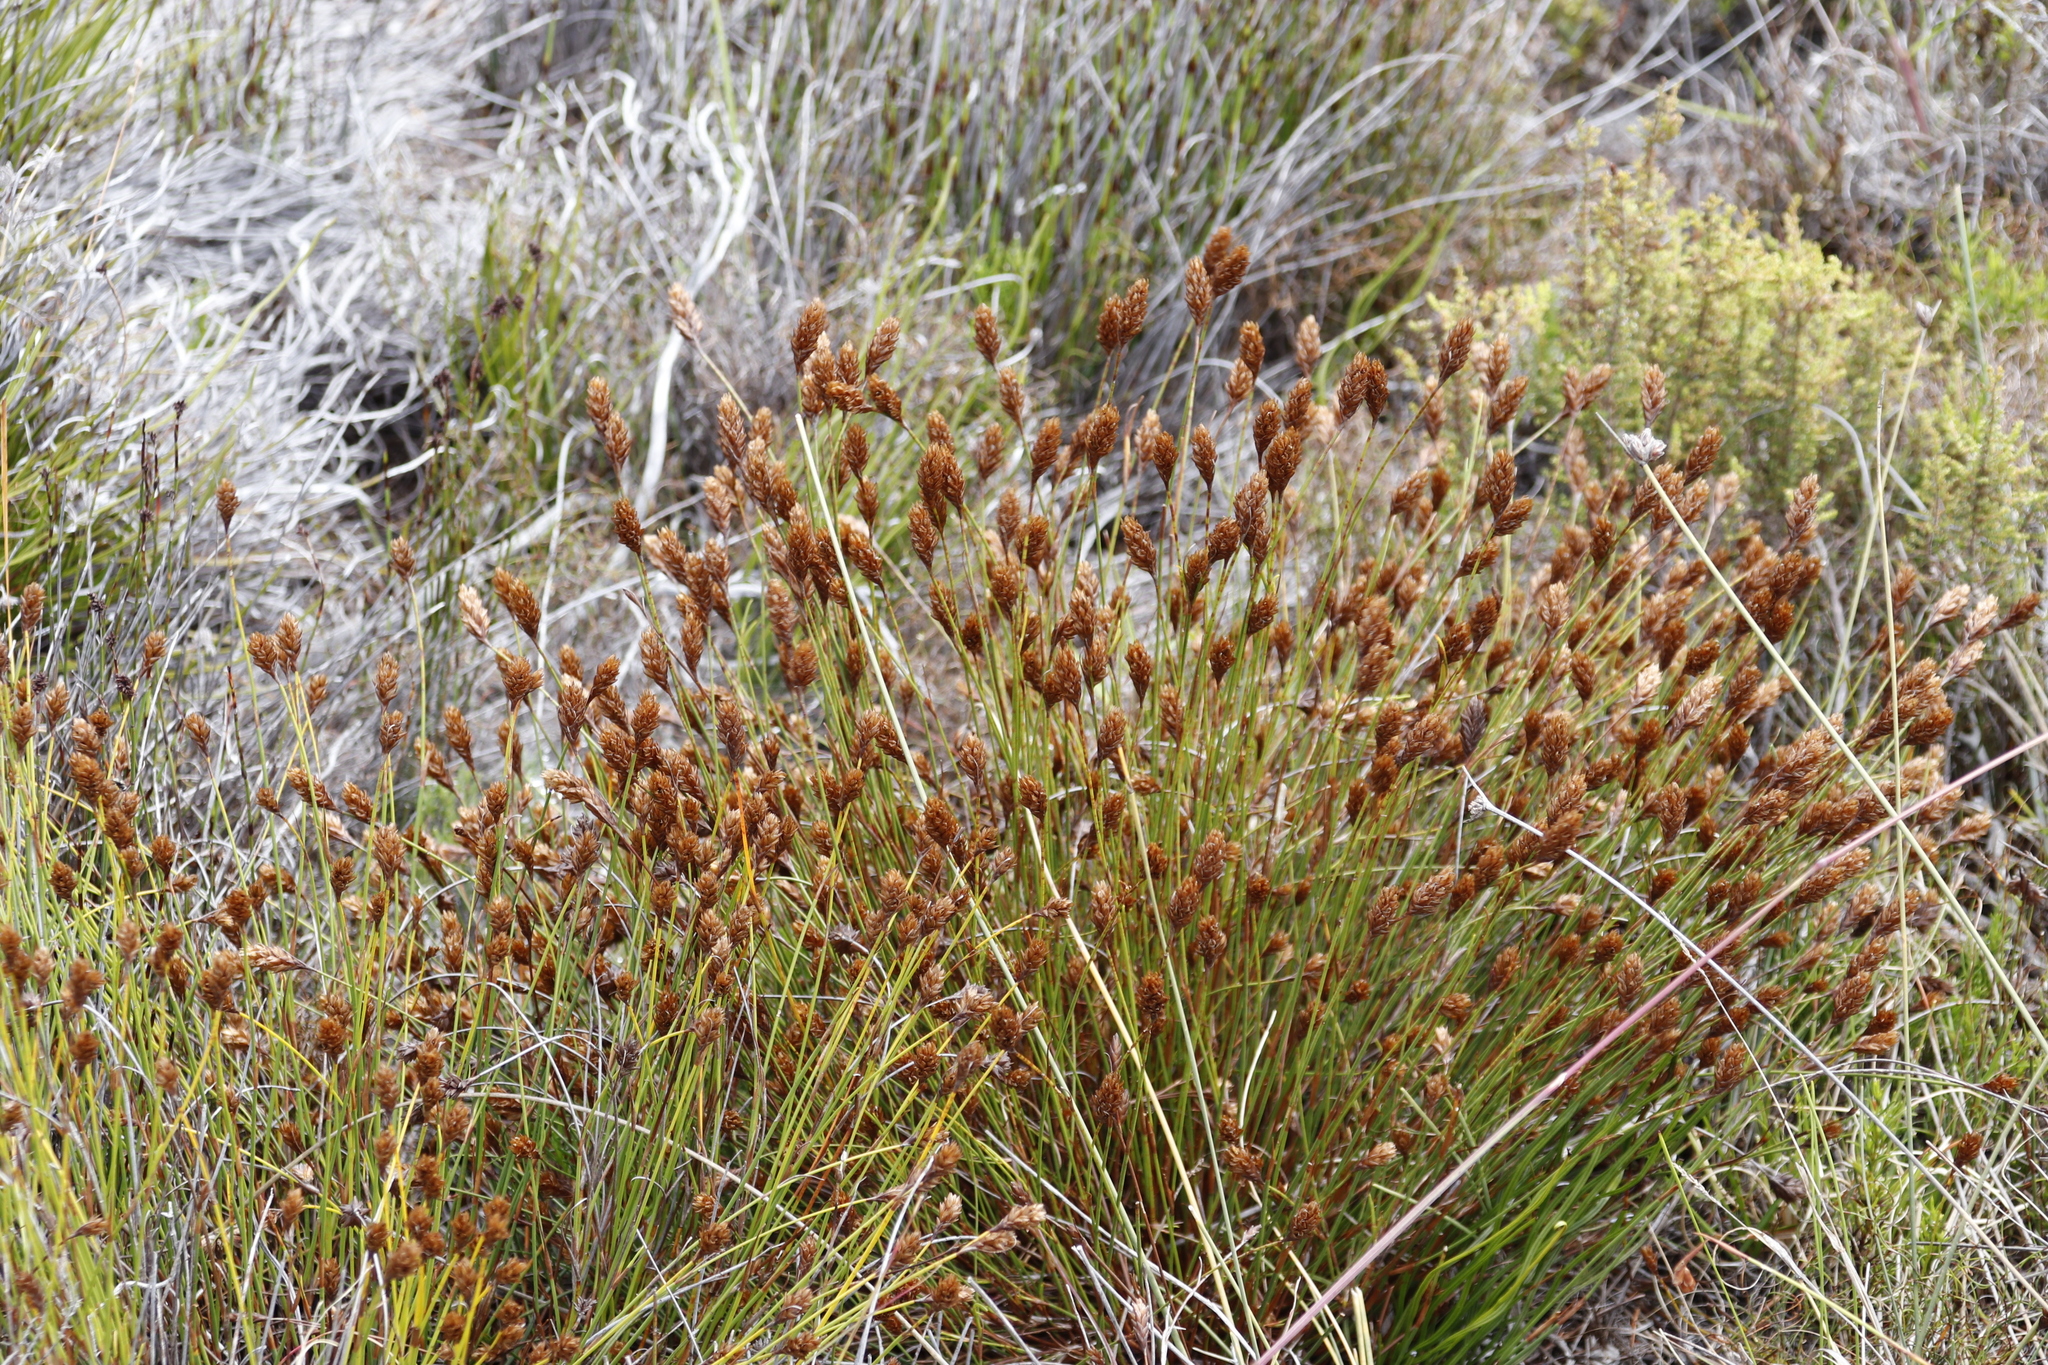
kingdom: Plantae
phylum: Tracheophyta
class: Liliopsida
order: Poales
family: Restionaceae
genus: Restio
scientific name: Restio quinquefarius
